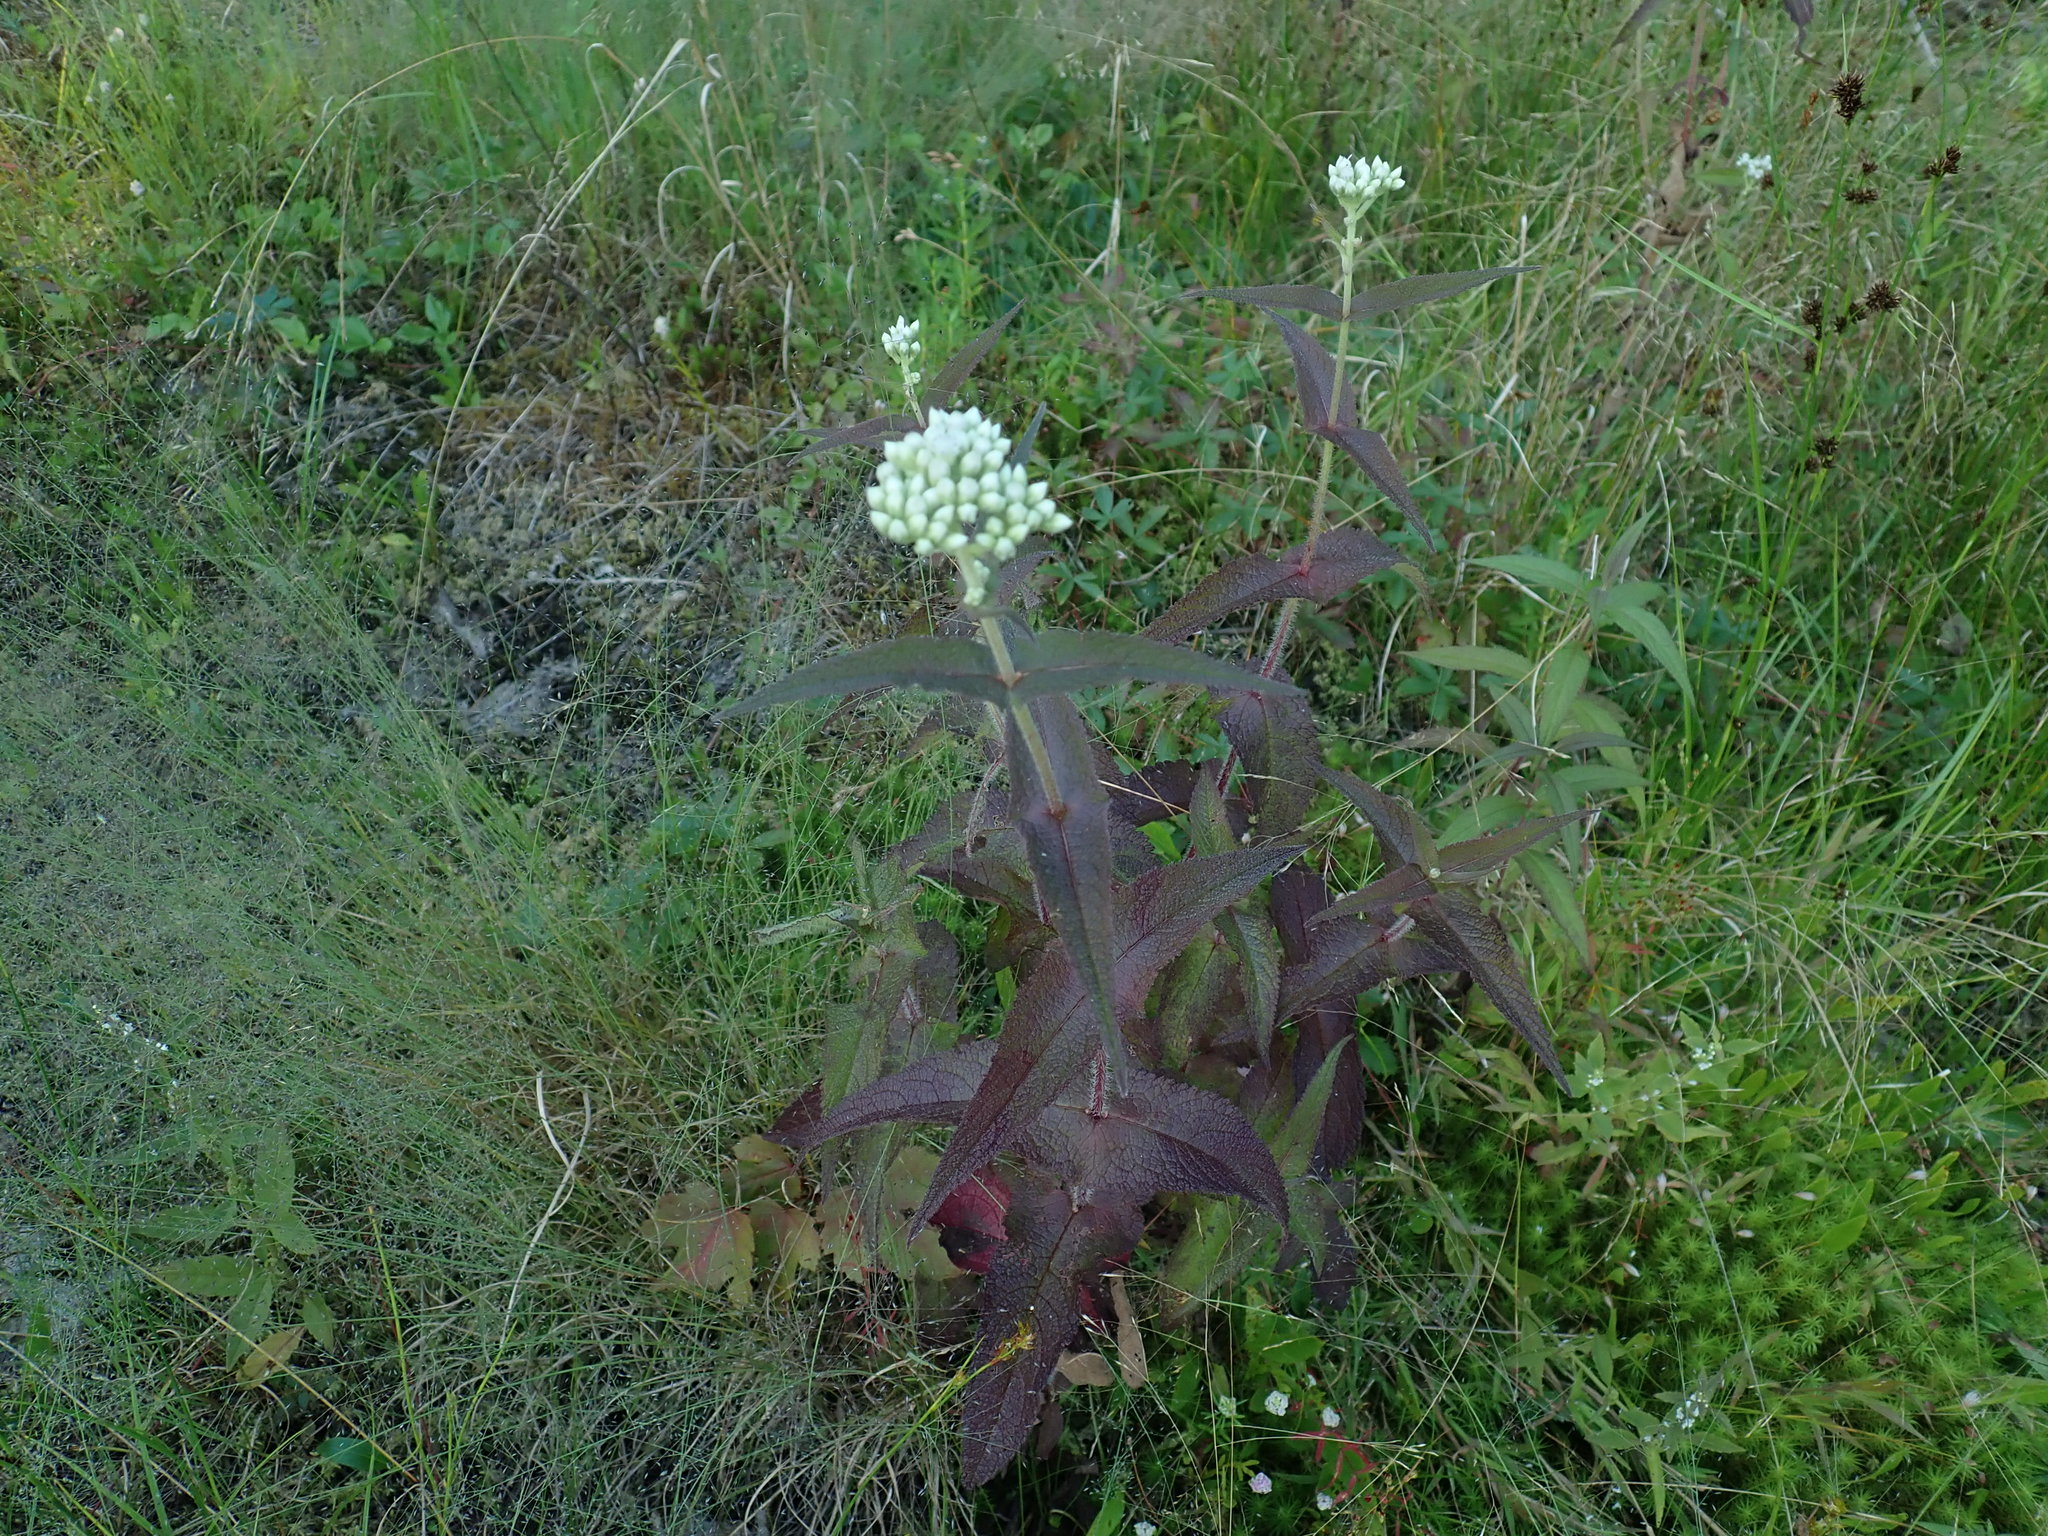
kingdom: Plantae
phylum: Tracheophyta
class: Magnoliopsida
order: Asterales
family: Asteraceae
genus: Eupatorium
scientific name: Eupatorium perfoliatum
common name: Boneset
